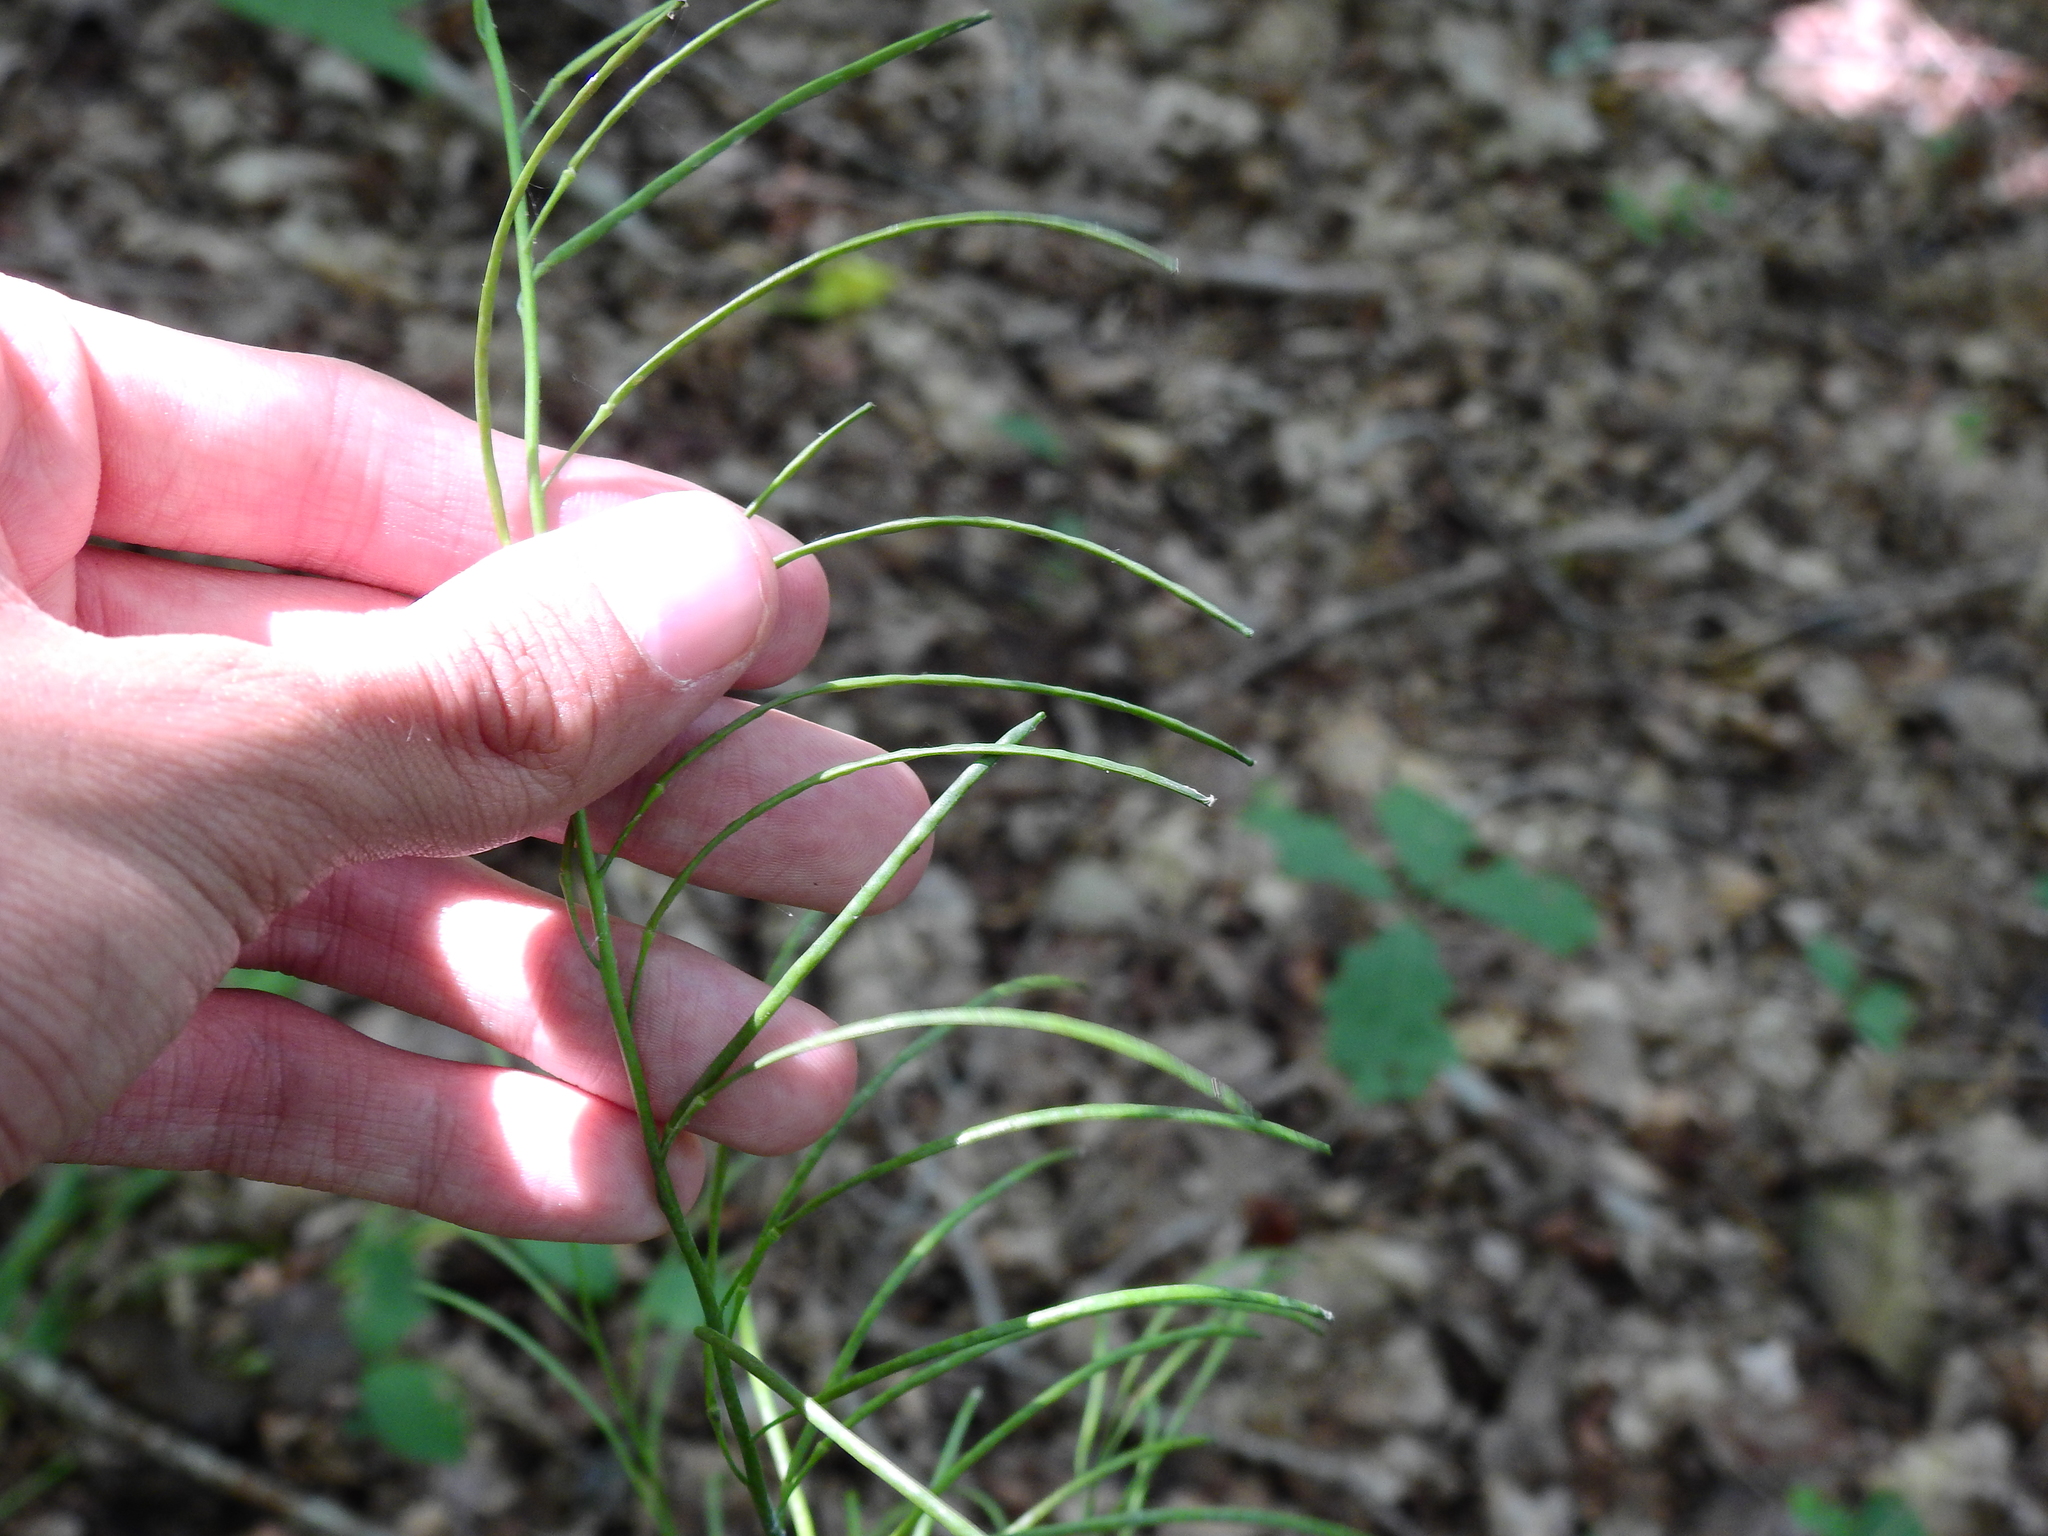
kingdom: Plantae
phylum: Tracheophyta
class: Magnoliopsida
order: Brassicales
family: Brassicaceae
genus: Borodinia
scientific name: Borodinia laevigata
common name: Smooth rockcress
